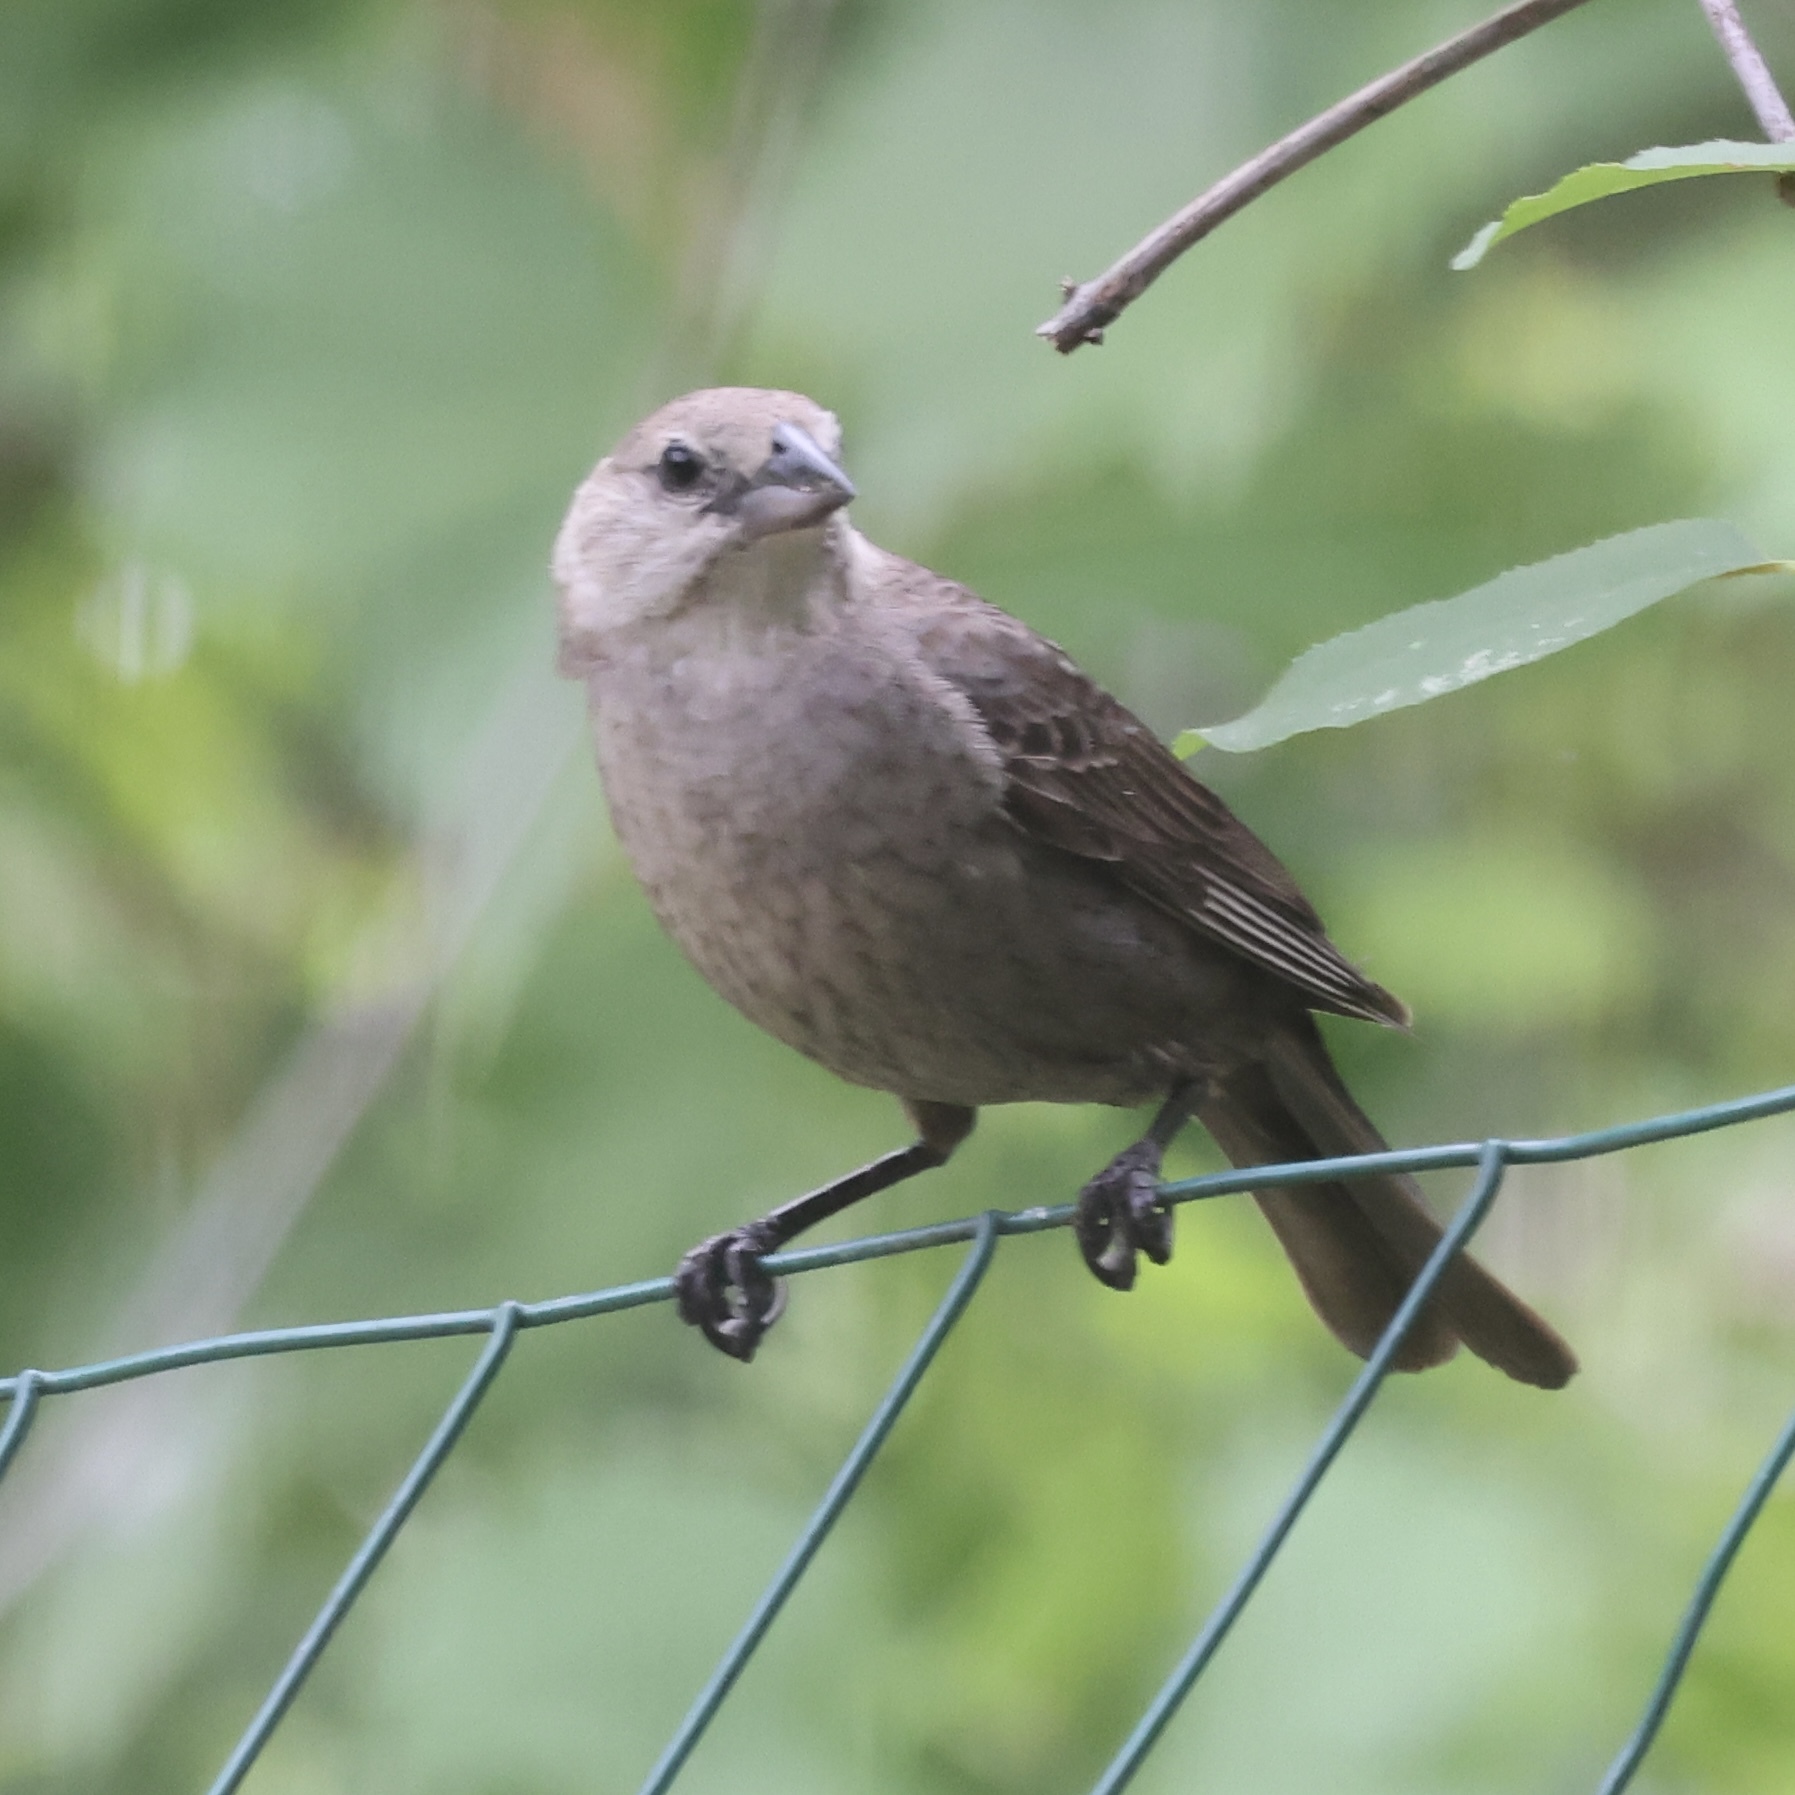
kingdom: Animalia
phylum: Chordata
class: Aves
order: Passeriformes
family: Icteridae
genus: Molothrus
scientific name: Molothrus ater
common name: Brown-headed cowbird
